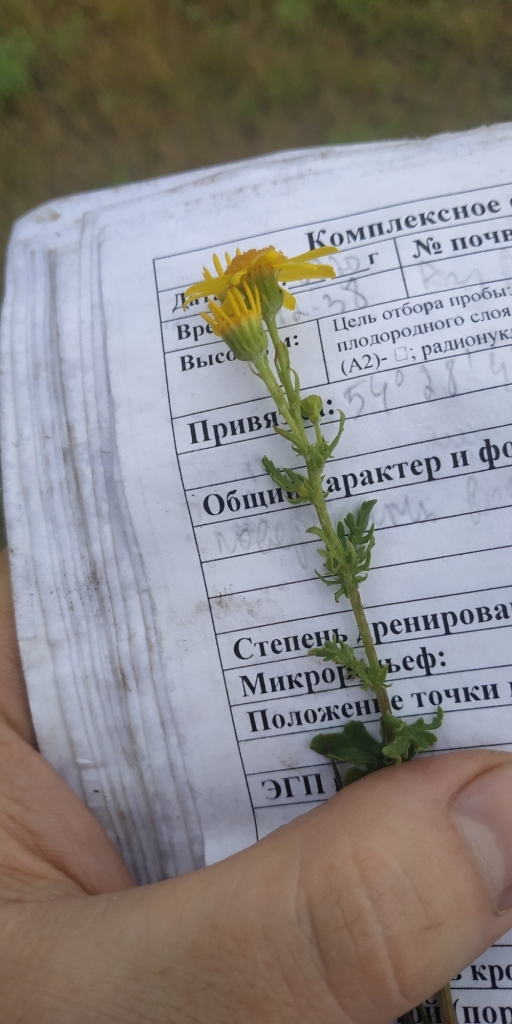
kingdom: Plantae
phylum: Tracheophyta
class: Magnoliopsida
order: Asterales
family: Asteraceae
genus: Jacobaea
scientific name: Jacobaea erucifolia
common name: Hoary ragwort
